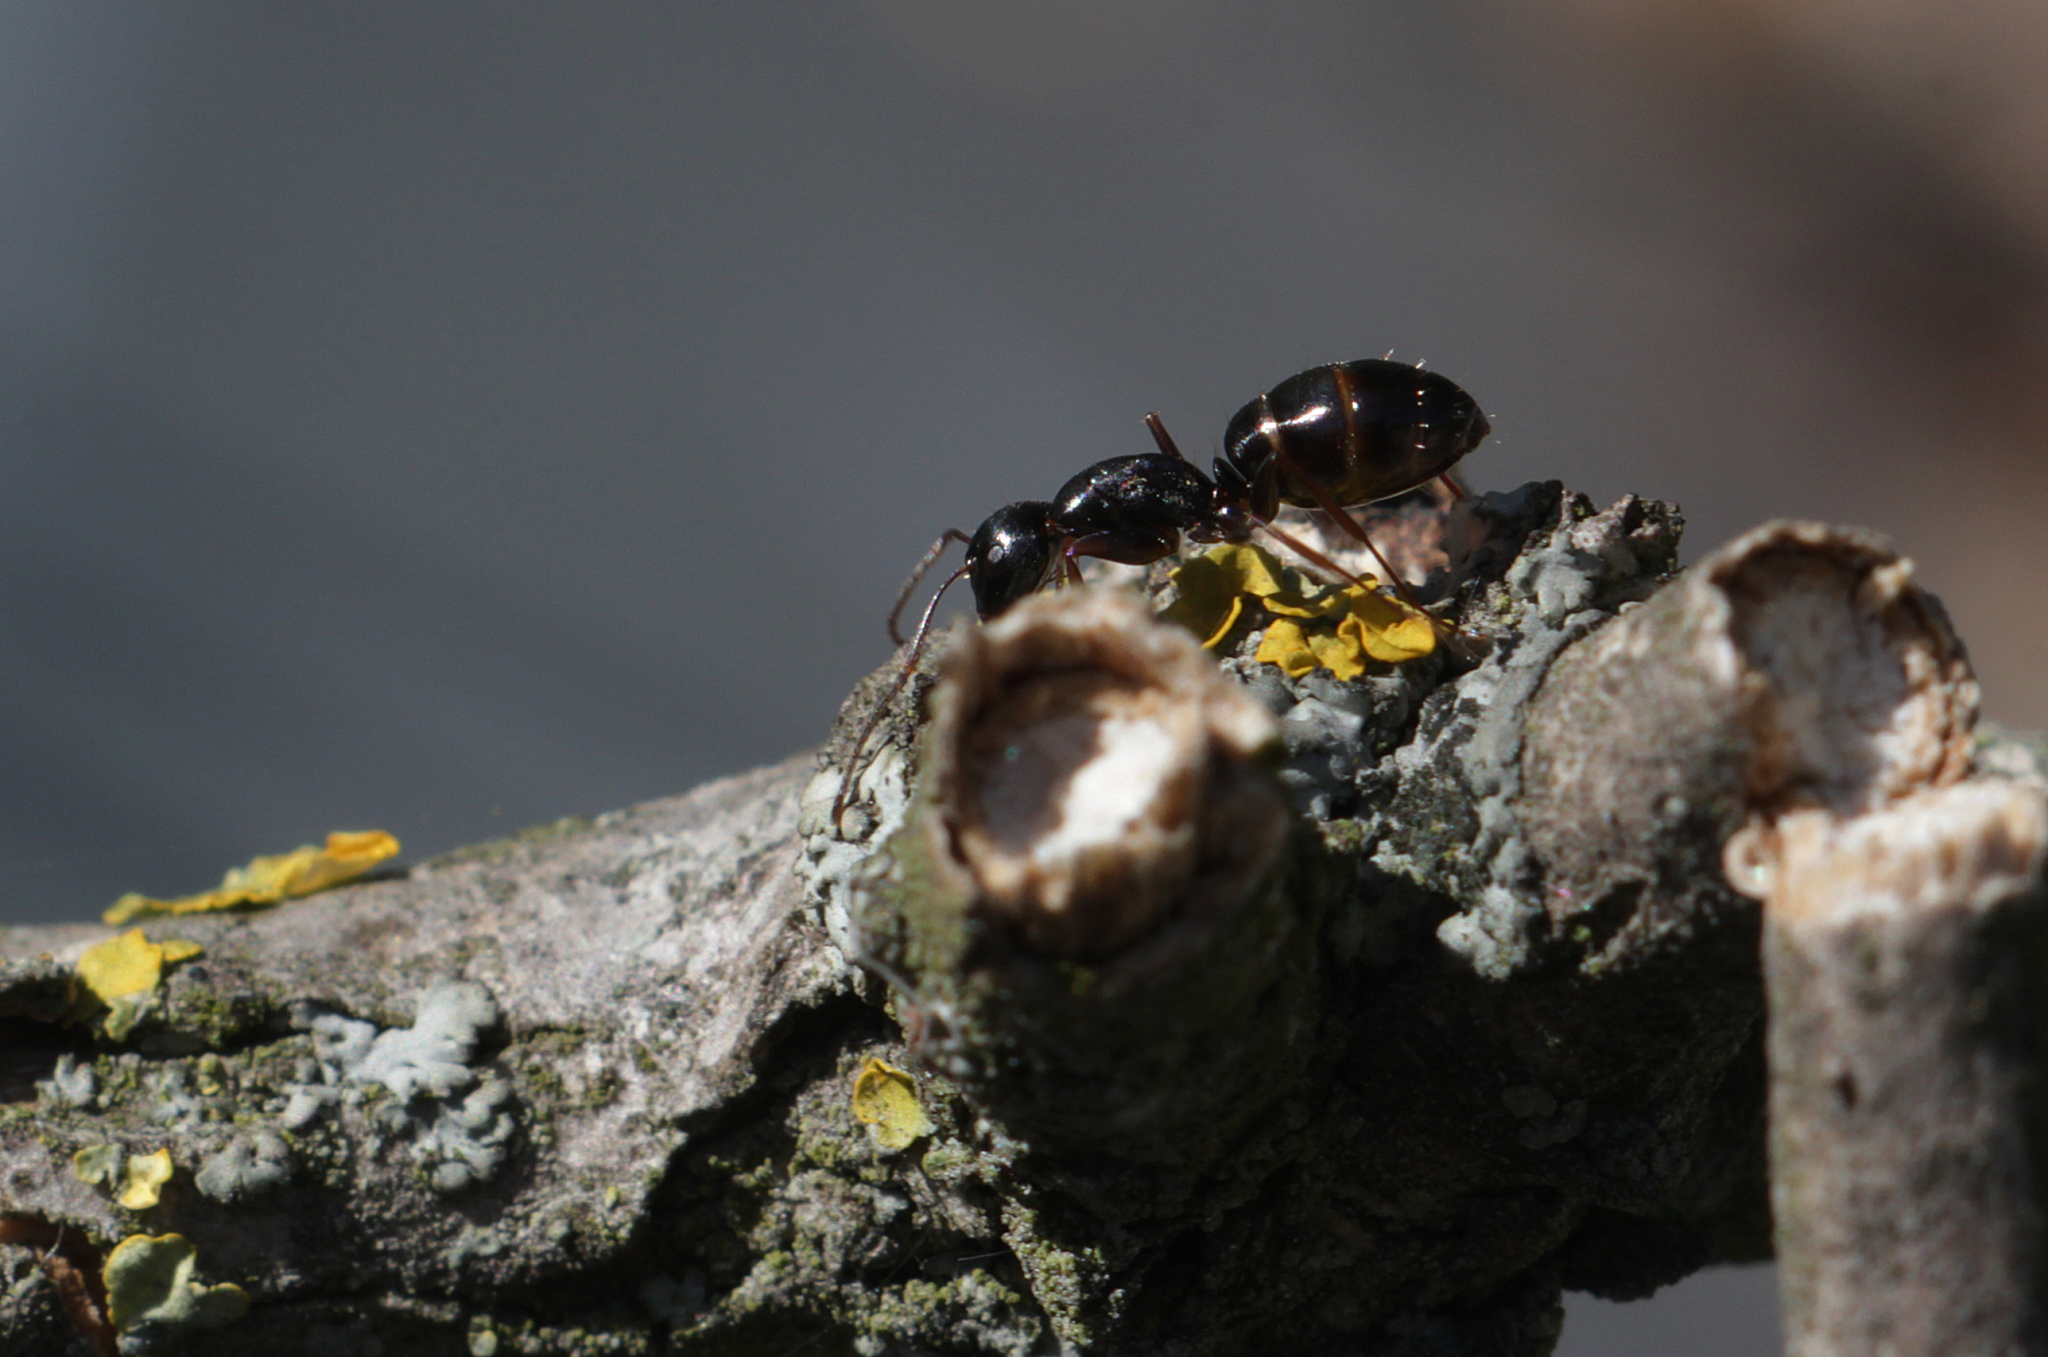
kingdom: Animalia
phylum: Arthropoda
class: Insecta
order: Hymenoptera
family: Formicidae
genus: Camponotus
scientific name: Camponotus aethiops
